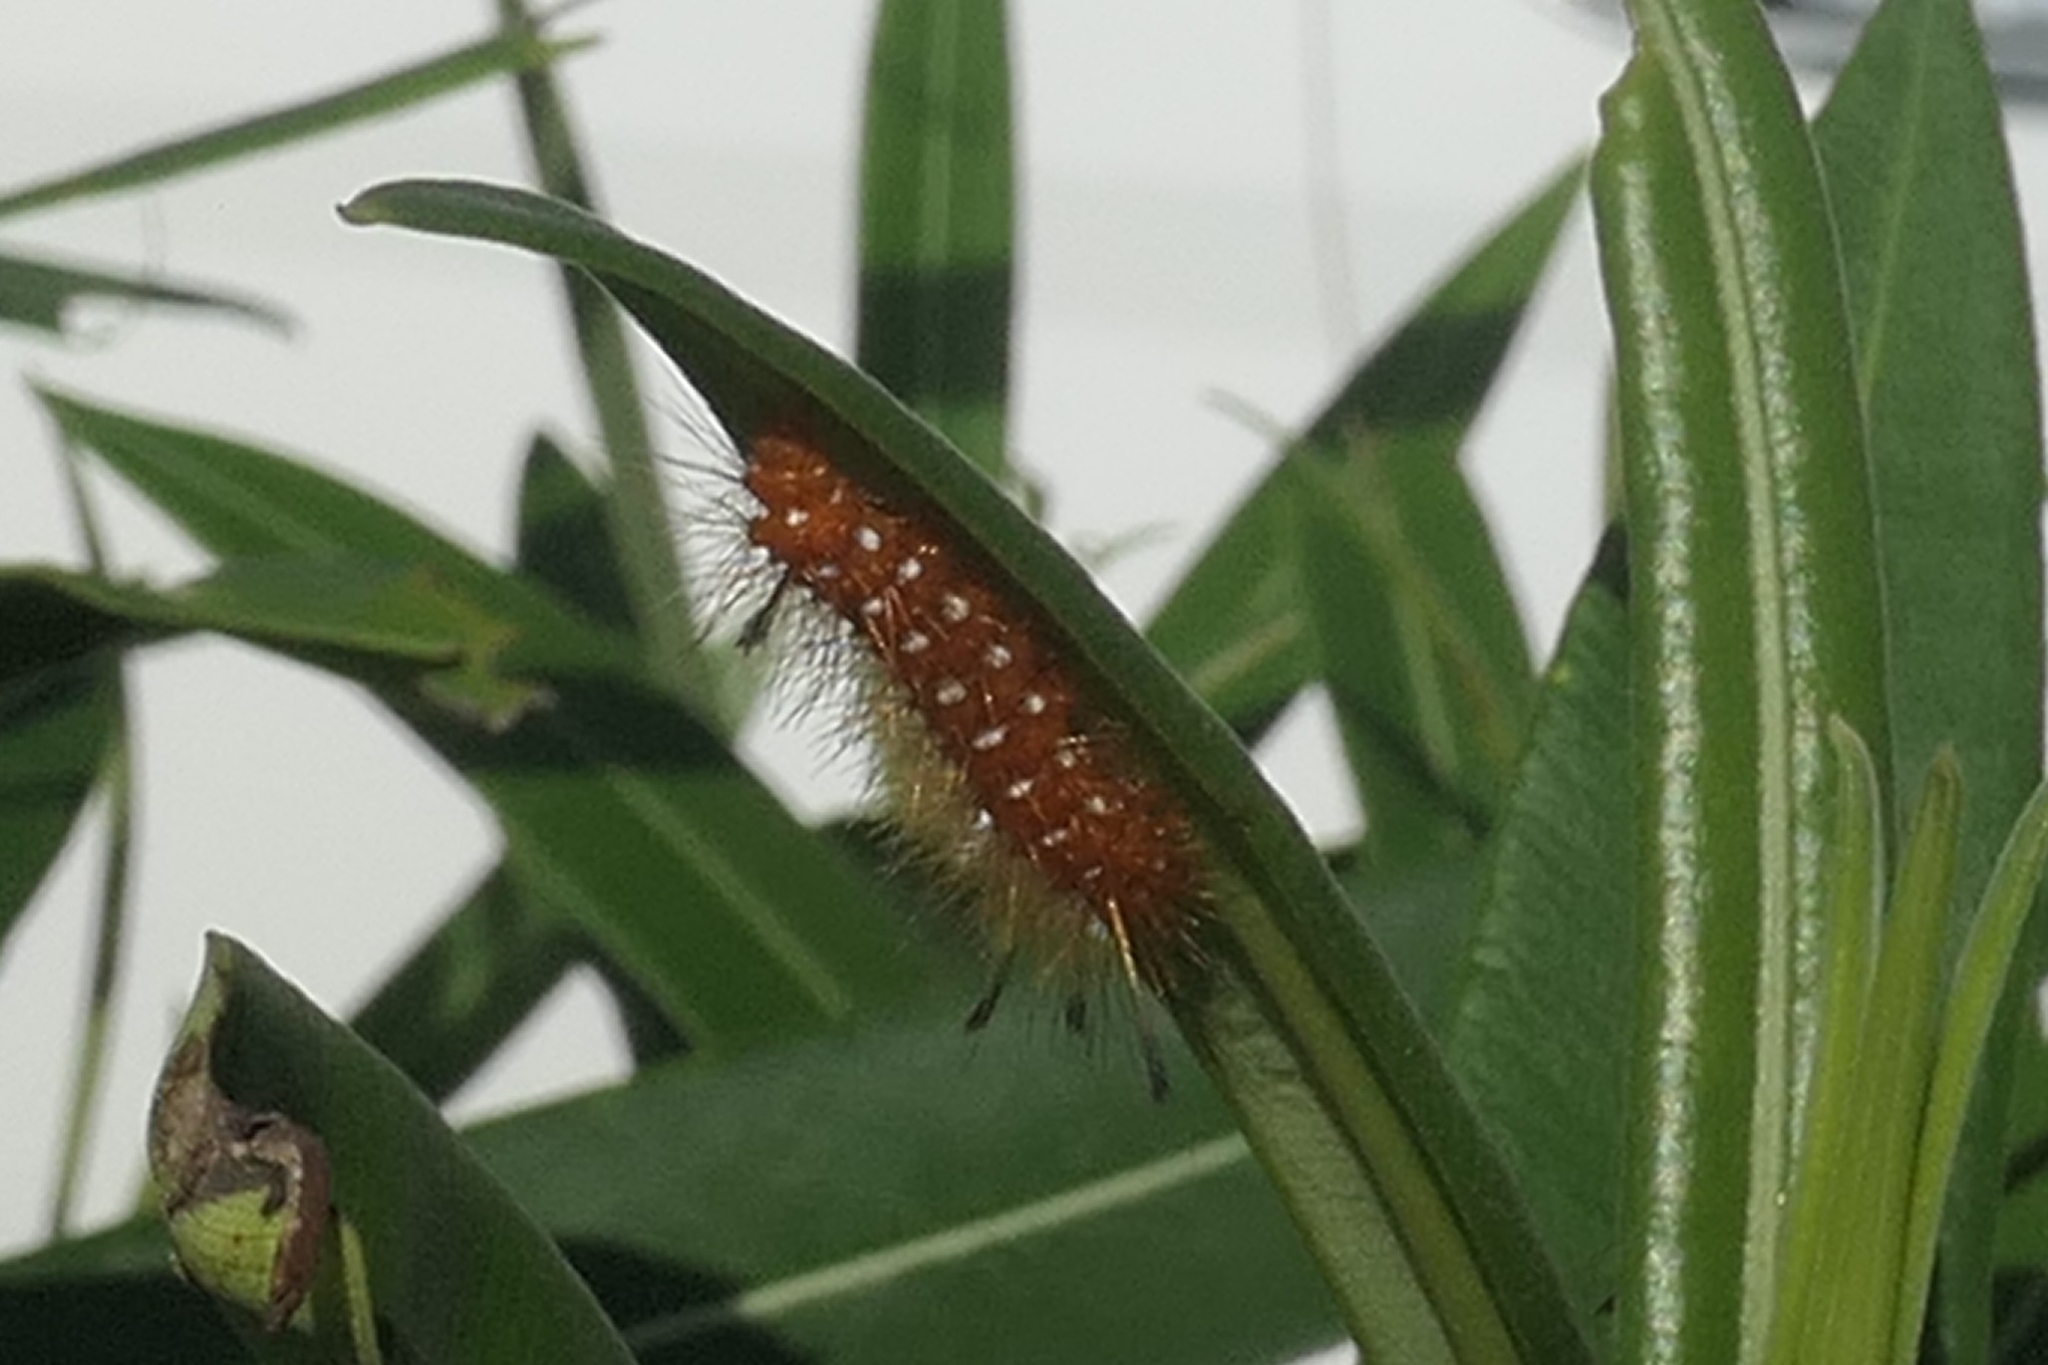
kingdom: Animalia
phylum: Arthropoda
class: Insecta
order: Lepidoptera
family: Erebidae
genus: Empyreuma
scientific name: Empyreuma pugione
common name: Spotted oleander caterpillar moth
